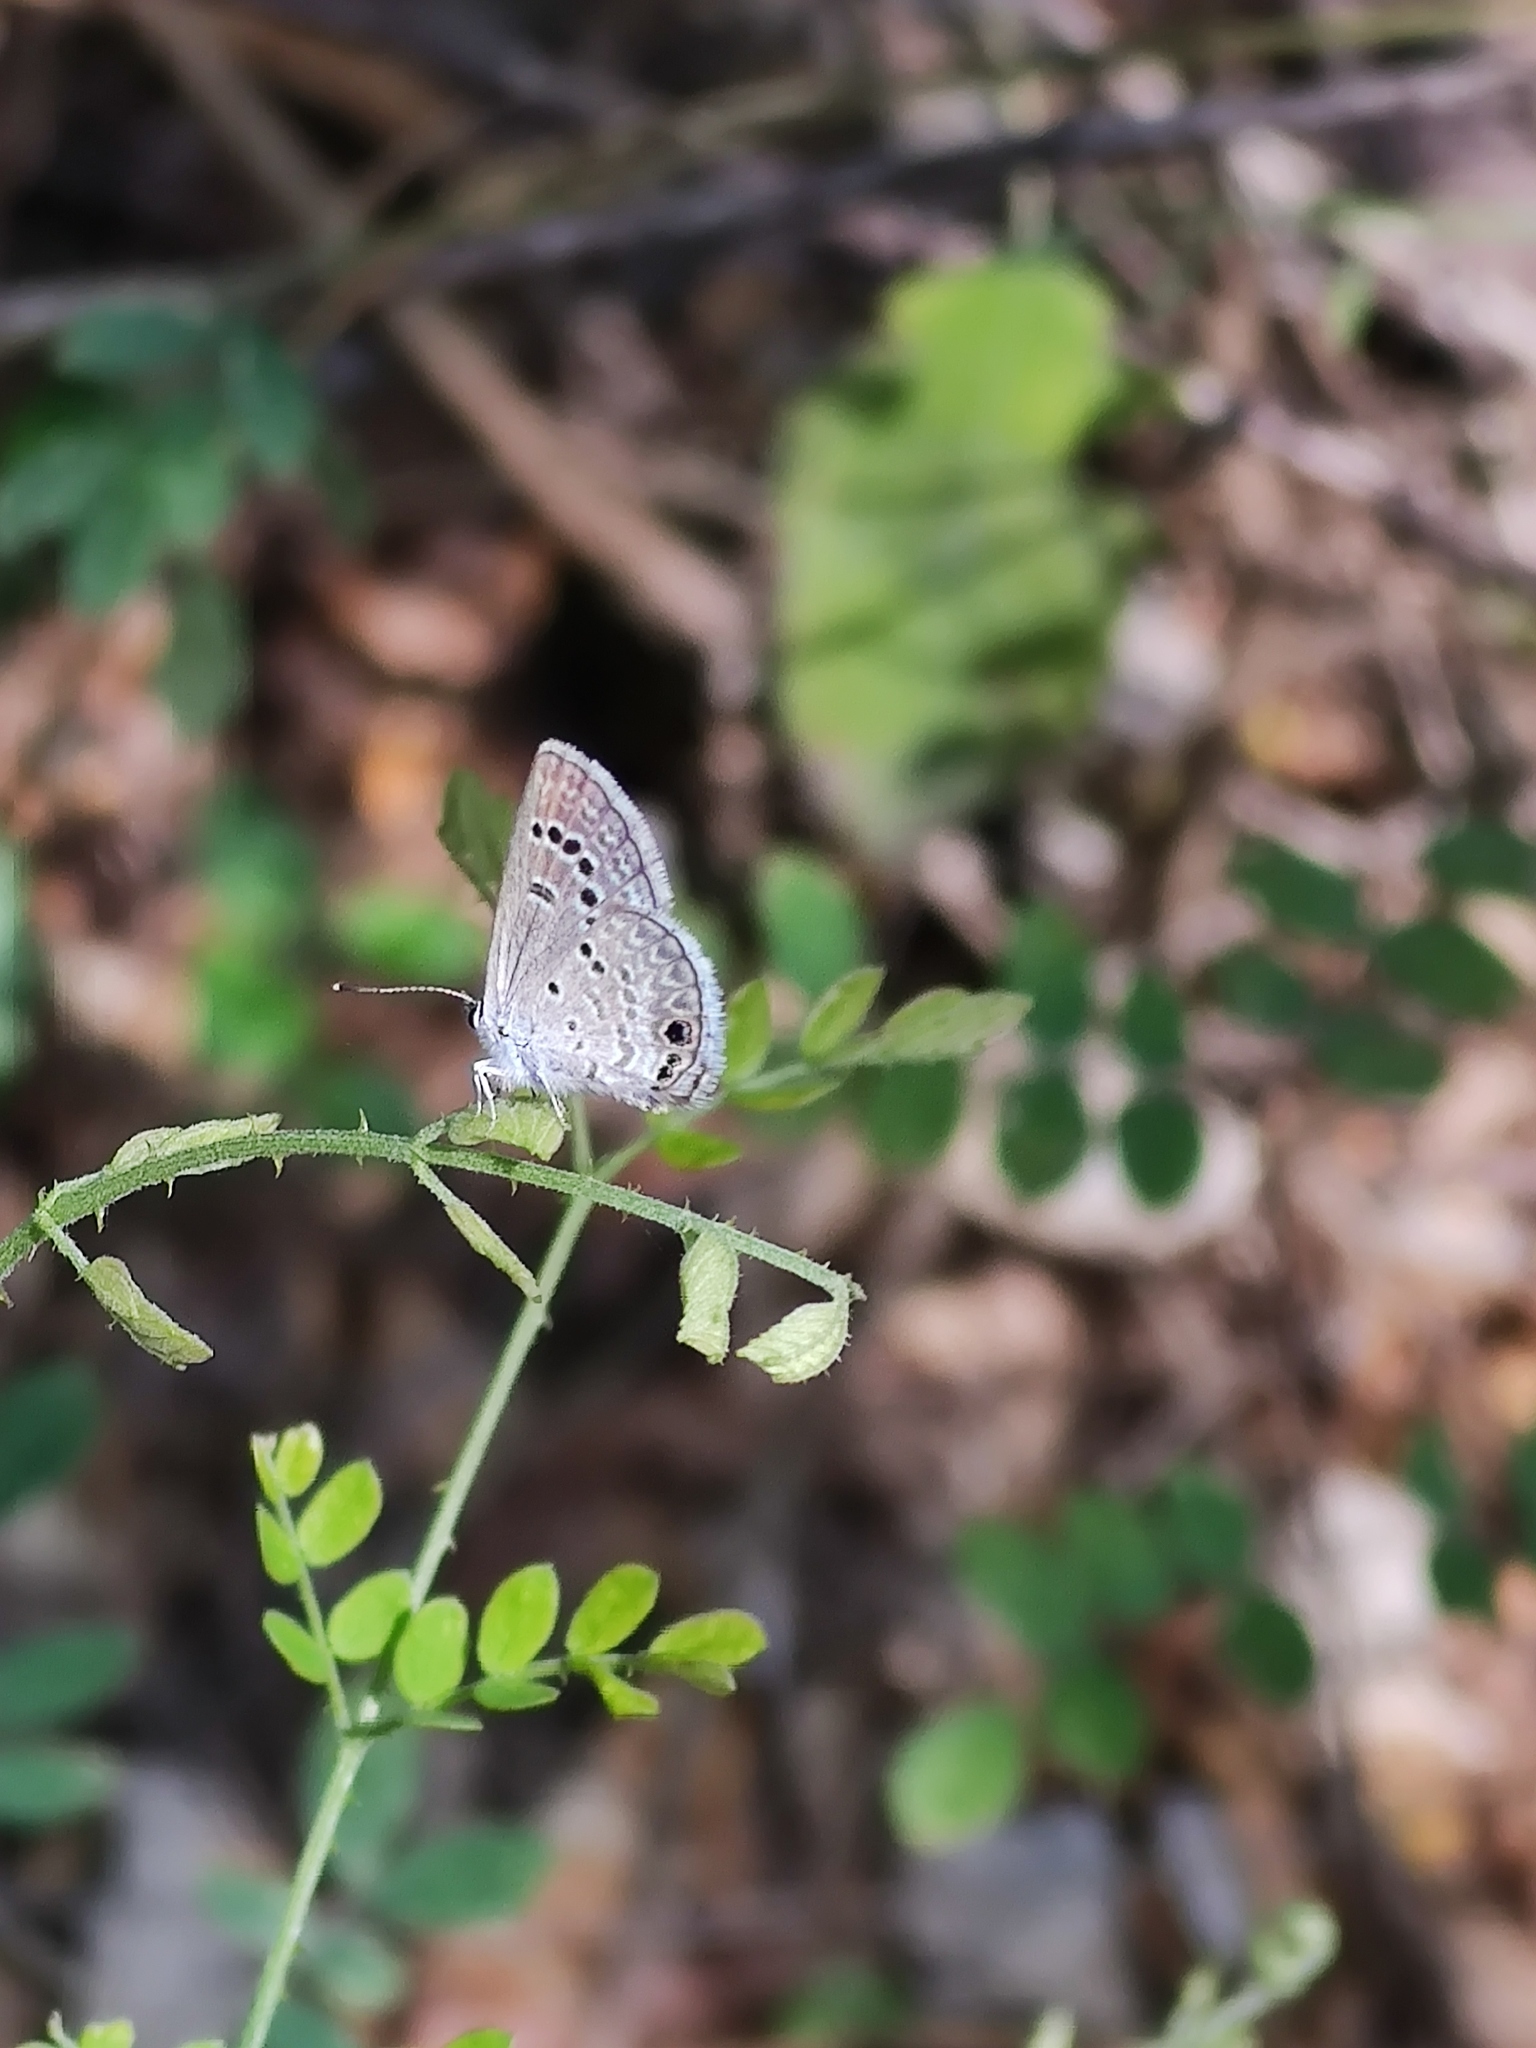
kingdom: Animalia
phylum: Arthropoda
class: Insecta
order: Lepidoptera
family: Lycaenidae
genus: Echinargus
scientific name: Echinargus isola
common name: Reakirt's blue
